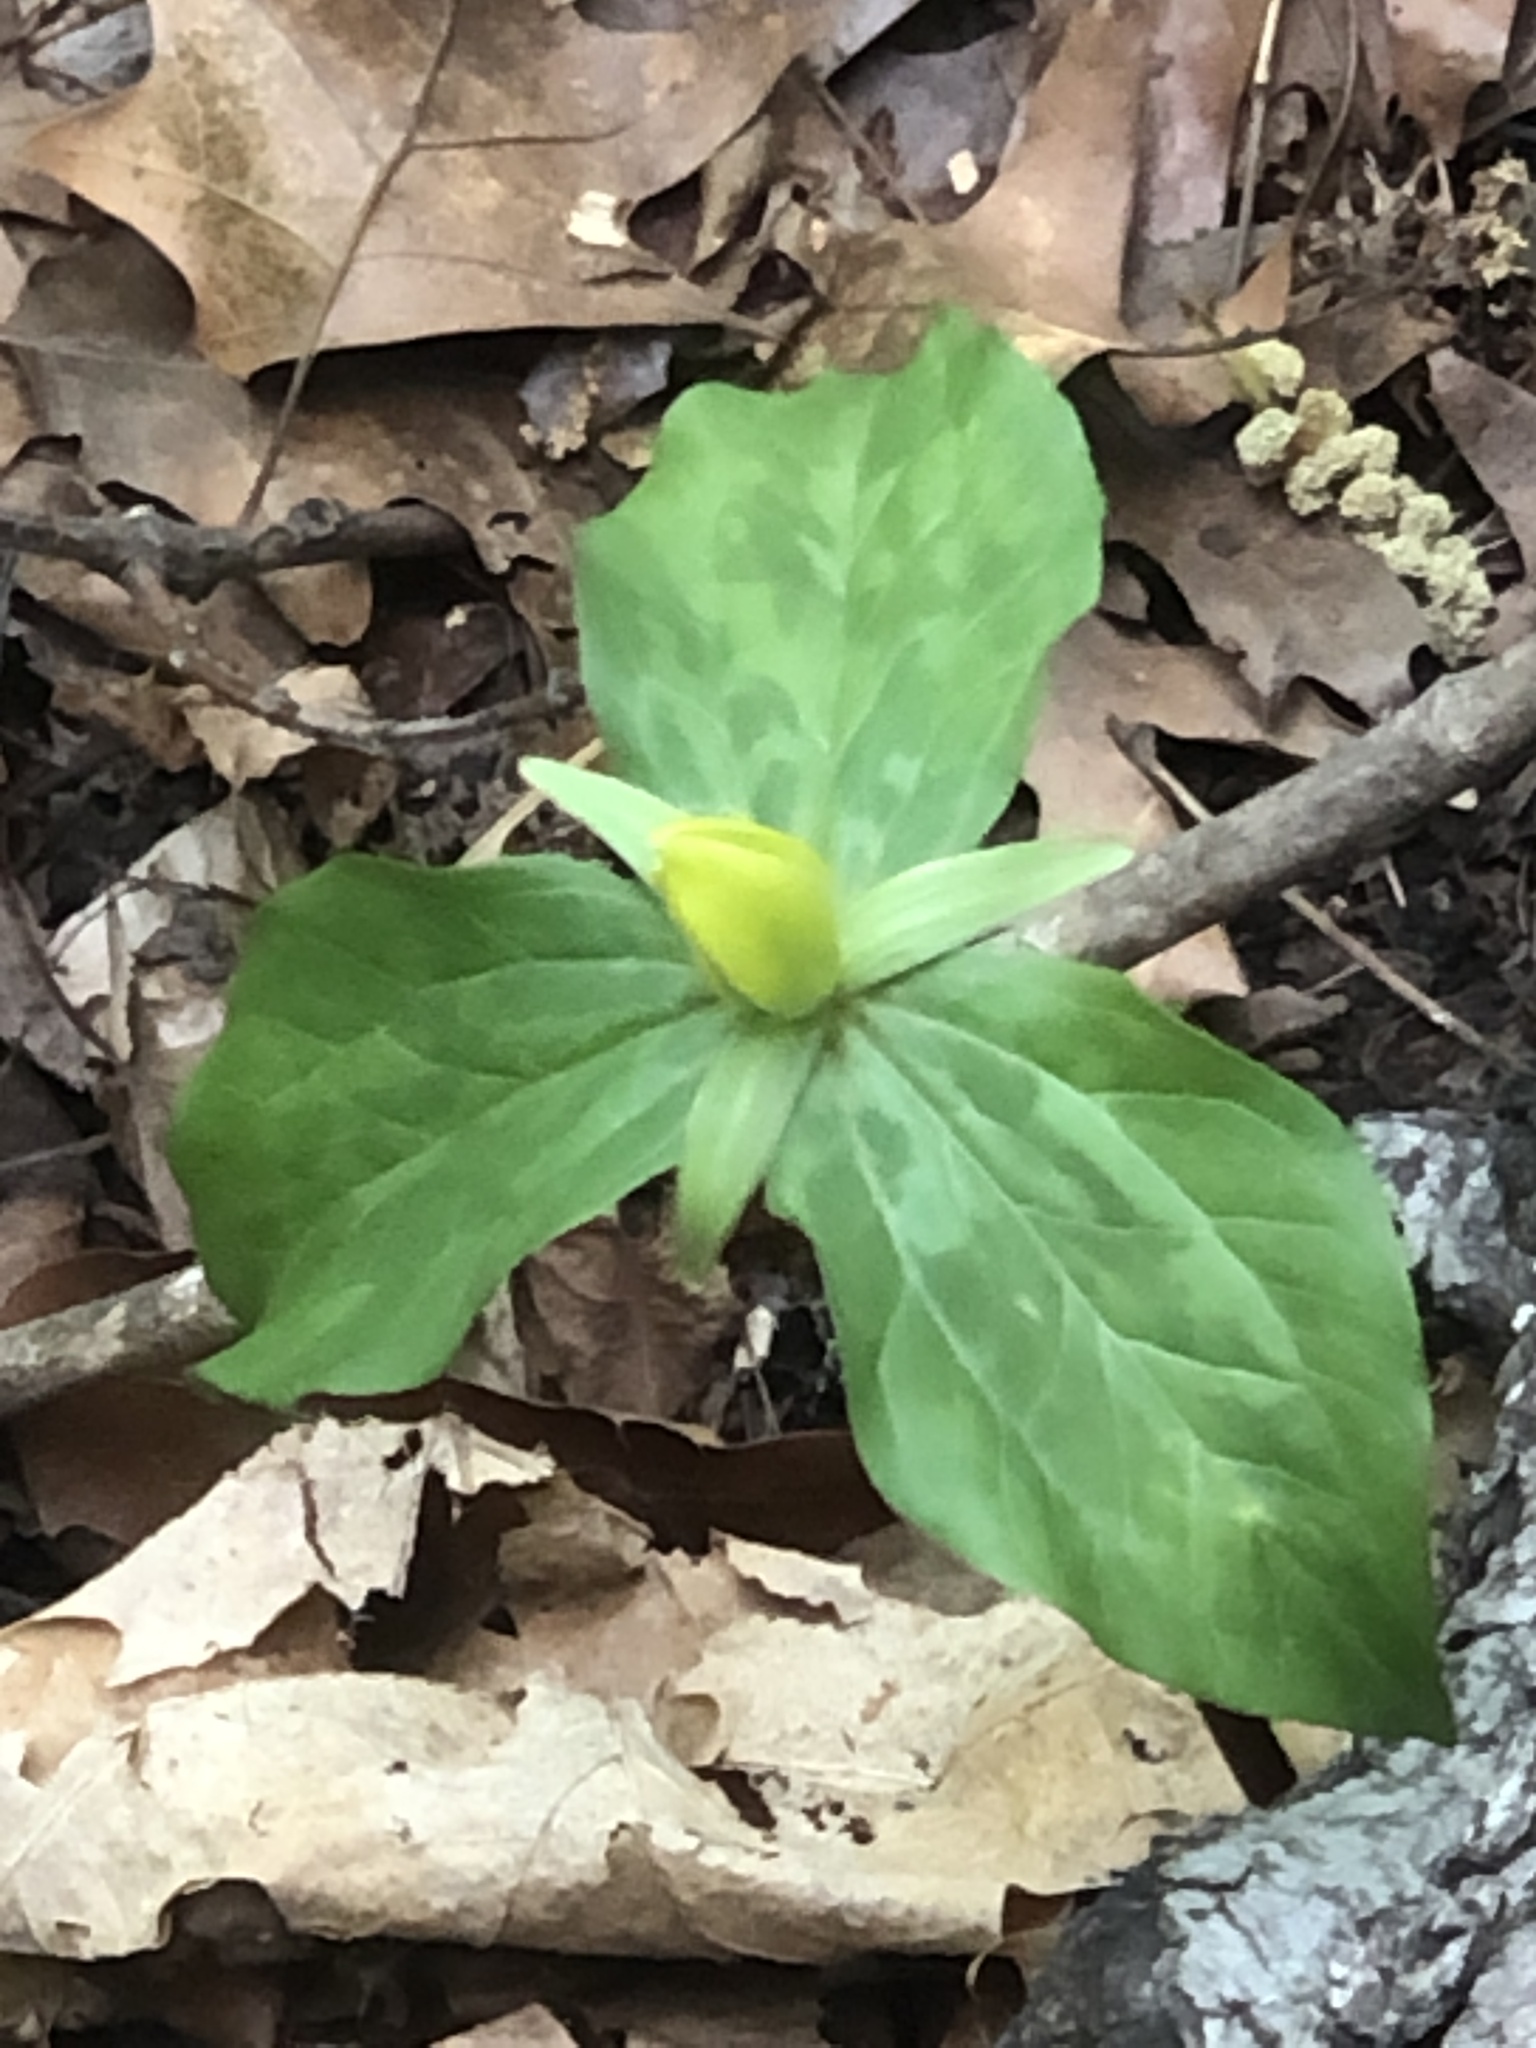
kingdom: Plantae
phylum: Tracheophyta
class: Liliopsida
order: Liliales
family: Melanthiaceae
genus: Trillium
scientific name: Trillium luteum
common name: Wax trillium
